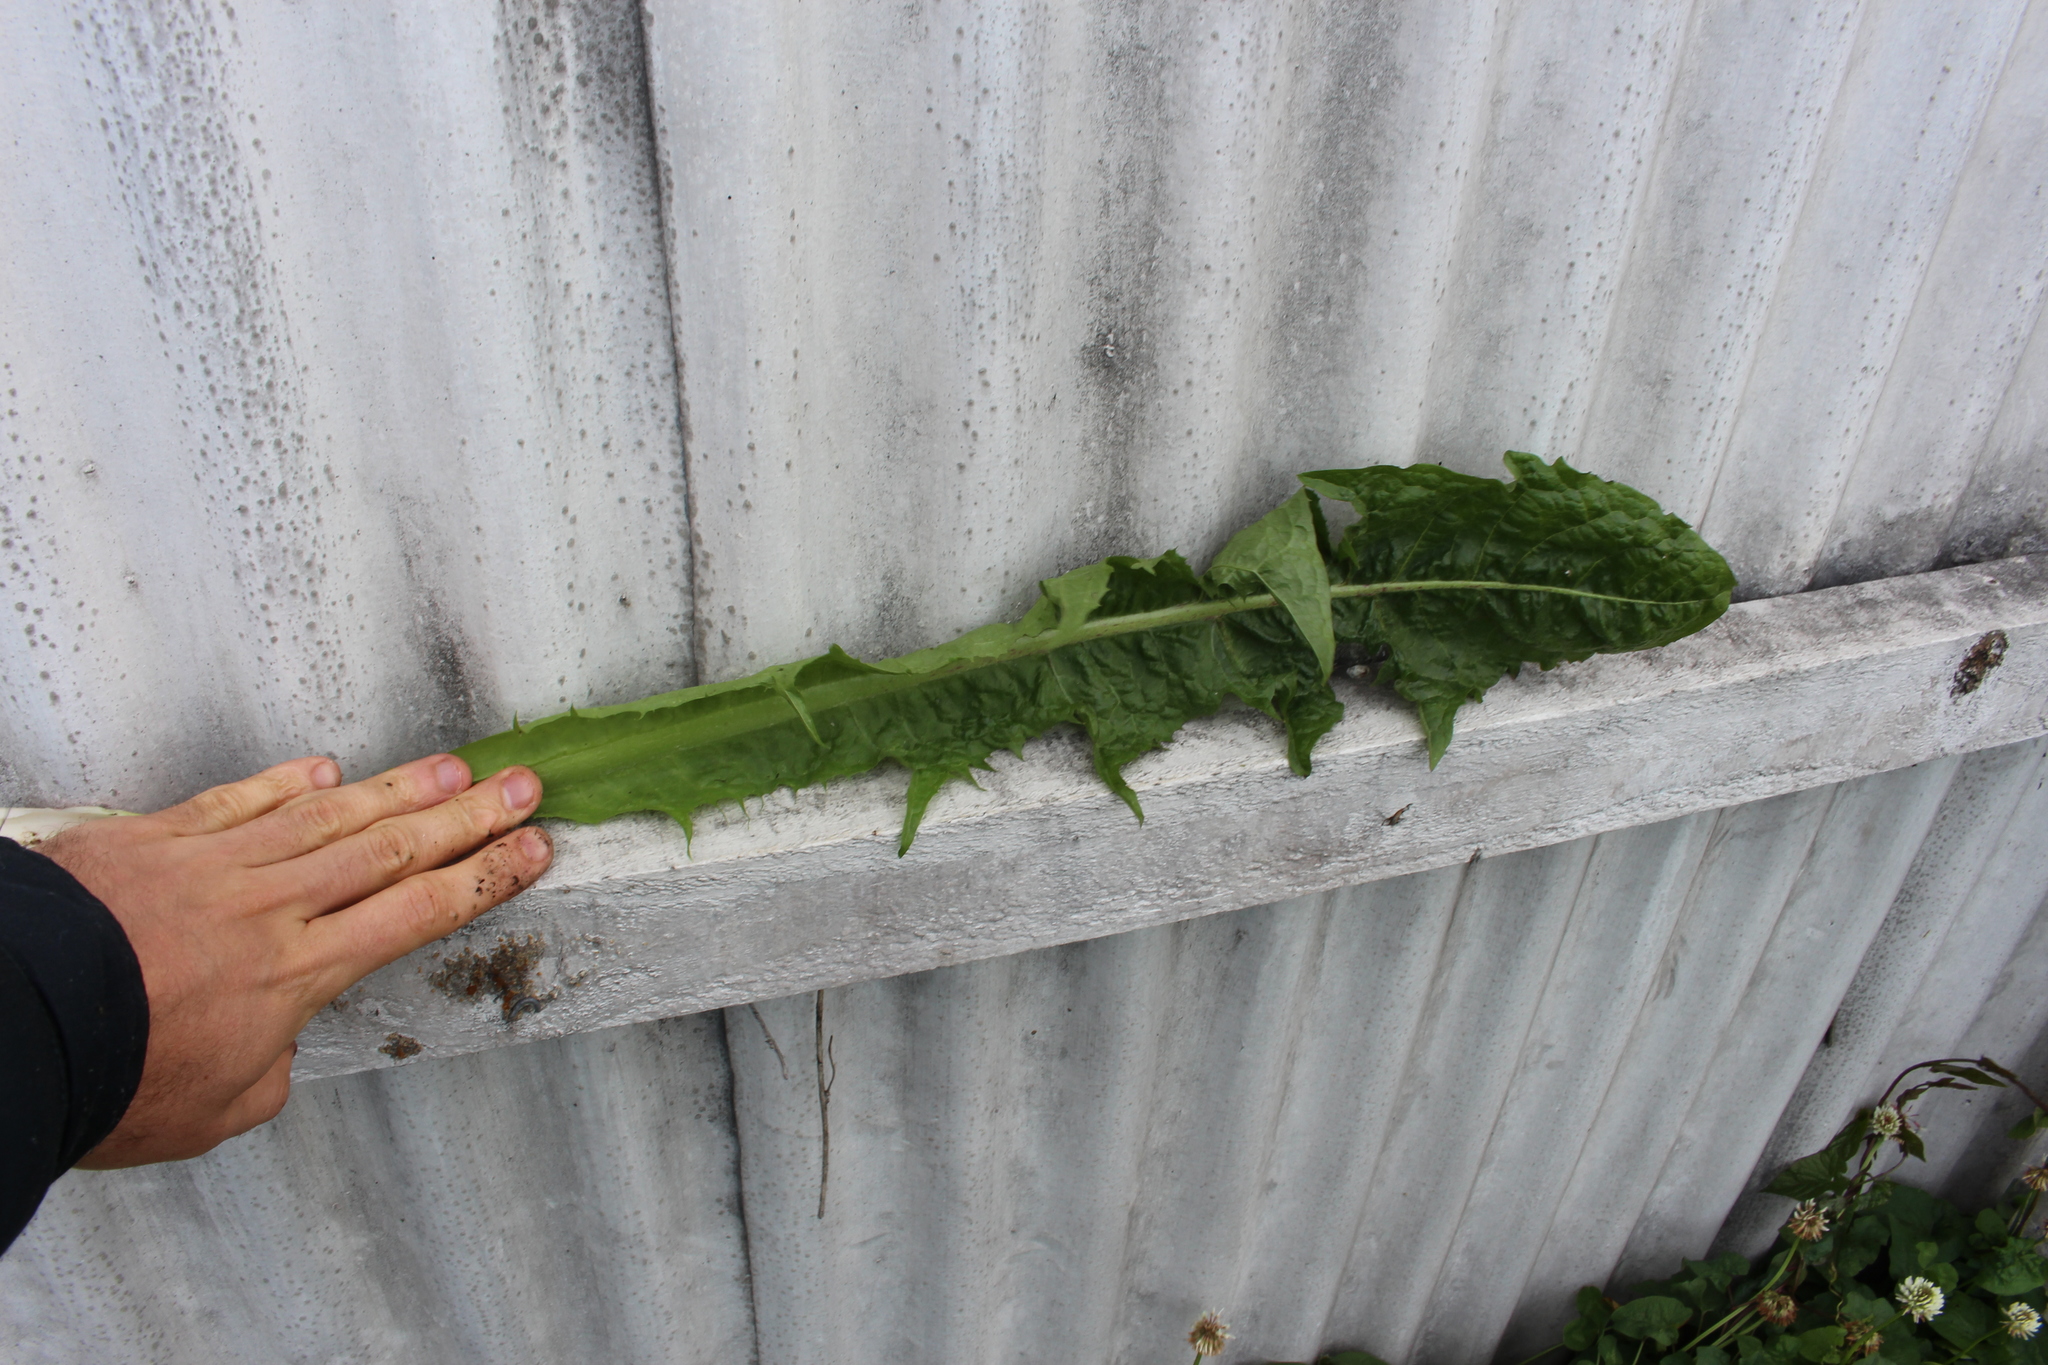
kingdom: Plantae
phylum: Tracheophyta
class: Magnoliopsida
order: Asterales
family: Asteraceae
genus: Taraxacum
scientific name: Taraxacum officinale
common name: Common dandelion
